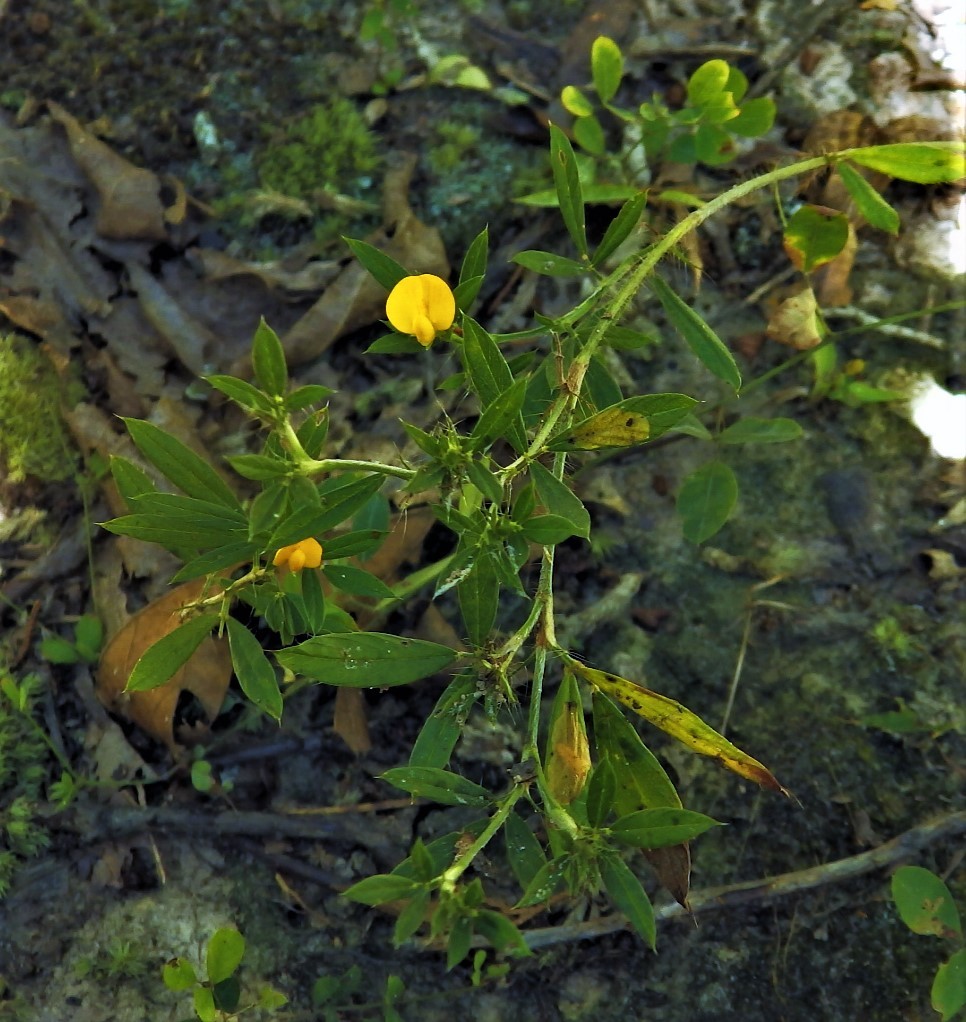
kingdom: Plantae
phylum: Tracheophyta
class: Magnoliopsida
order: Fabales
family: Fabaceae
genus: Stylosanthes
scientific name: Stylosanthes biflora
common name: Two-flower pencil-flower
